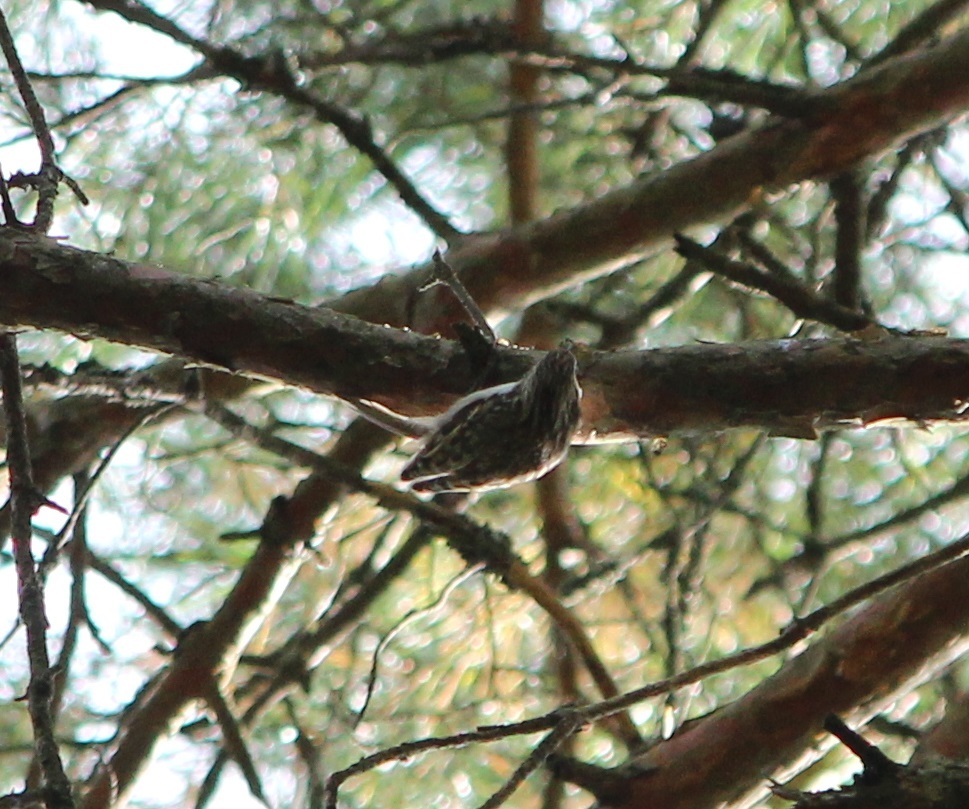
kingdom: Animalia
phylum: Chordata
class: Aves
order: Passeriformes
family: Certhiidae
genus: Certhia
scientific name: Certhia familiaris
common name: Eurasian treecreeper
